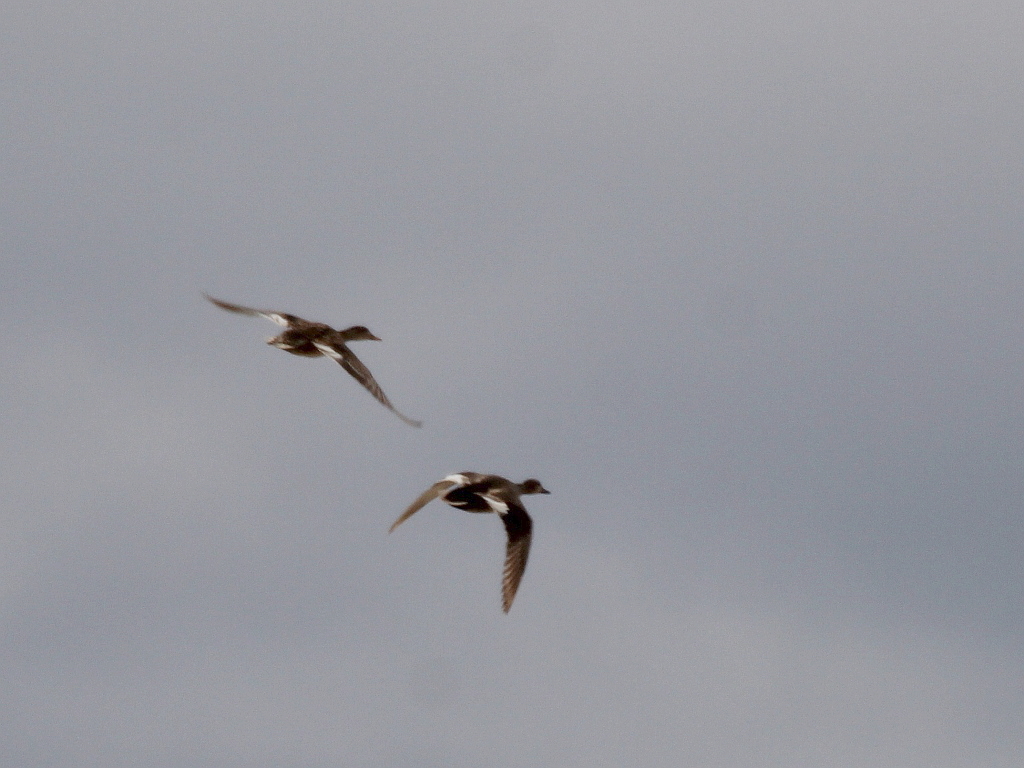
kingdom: Animalia
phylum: Chordata
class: Aves
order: Anseriformes
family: Anatidae
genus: Mareca
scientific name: Mareca strepera
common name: Gadwall
